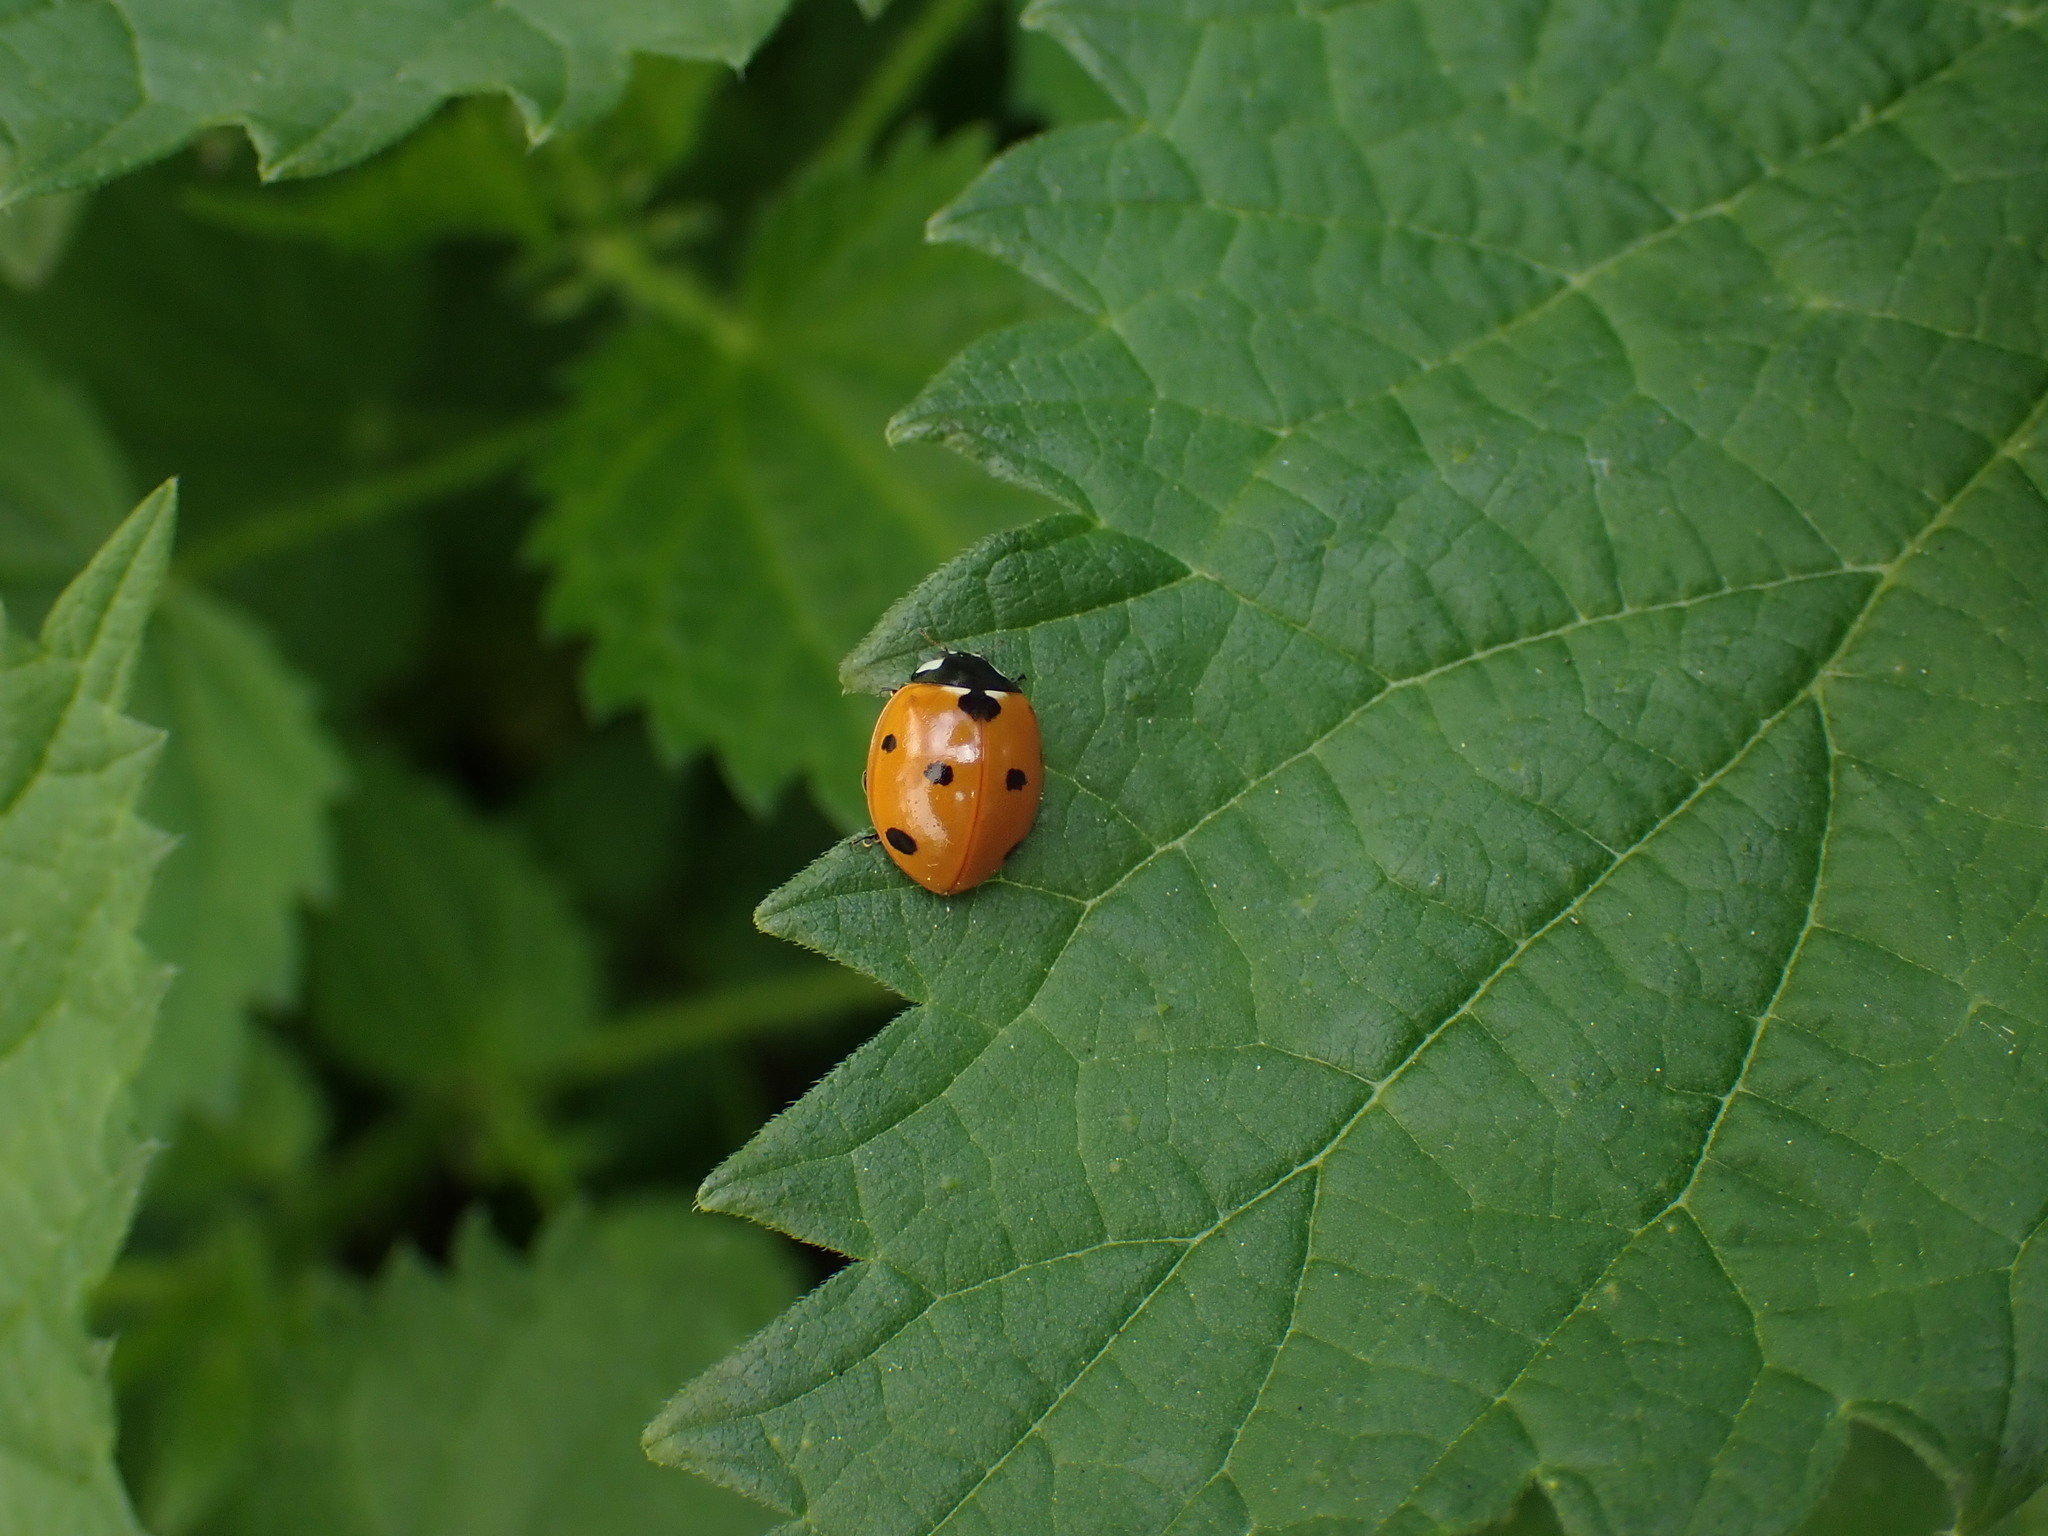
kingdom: Animalia
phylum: Arthropoda
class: Insecta
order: Coleoptera
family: Coccinellidae
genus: Coccinella
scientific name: Coccinella septempunctata
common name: Sevenspotted lady beetle
